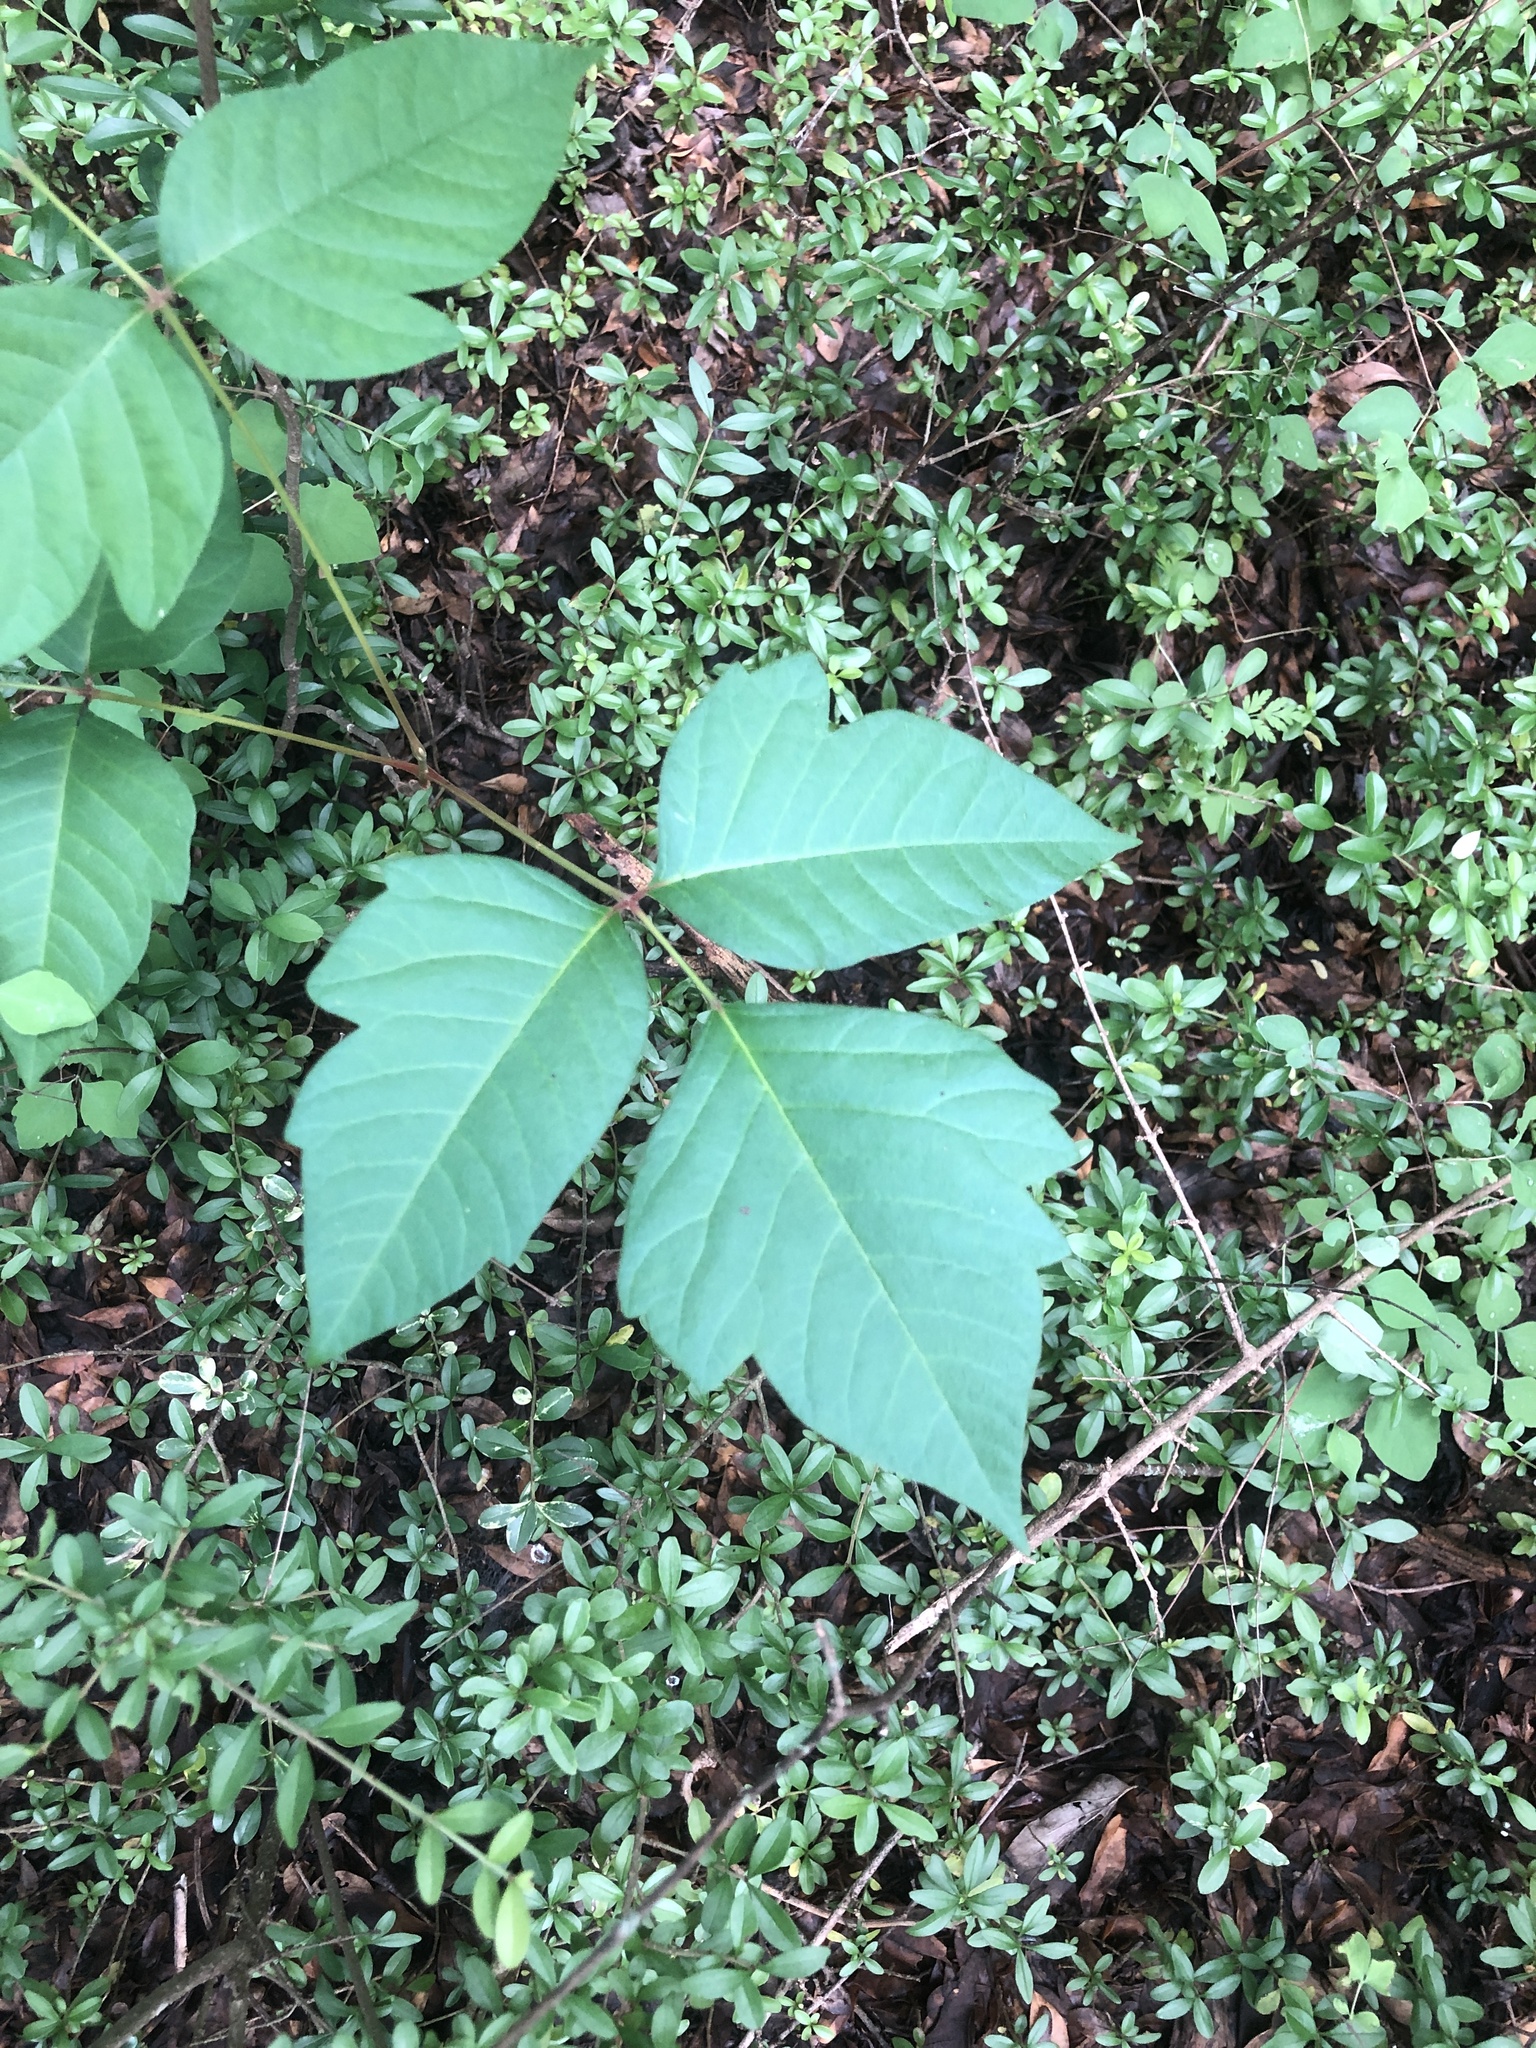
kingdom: Plantae
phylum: Tracheophyta
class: Magnoliopsida
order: Sapindales
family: Anacardiaceae
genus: Toxicodendron
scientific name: Toxicodendron radicans
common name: Poison ivy
